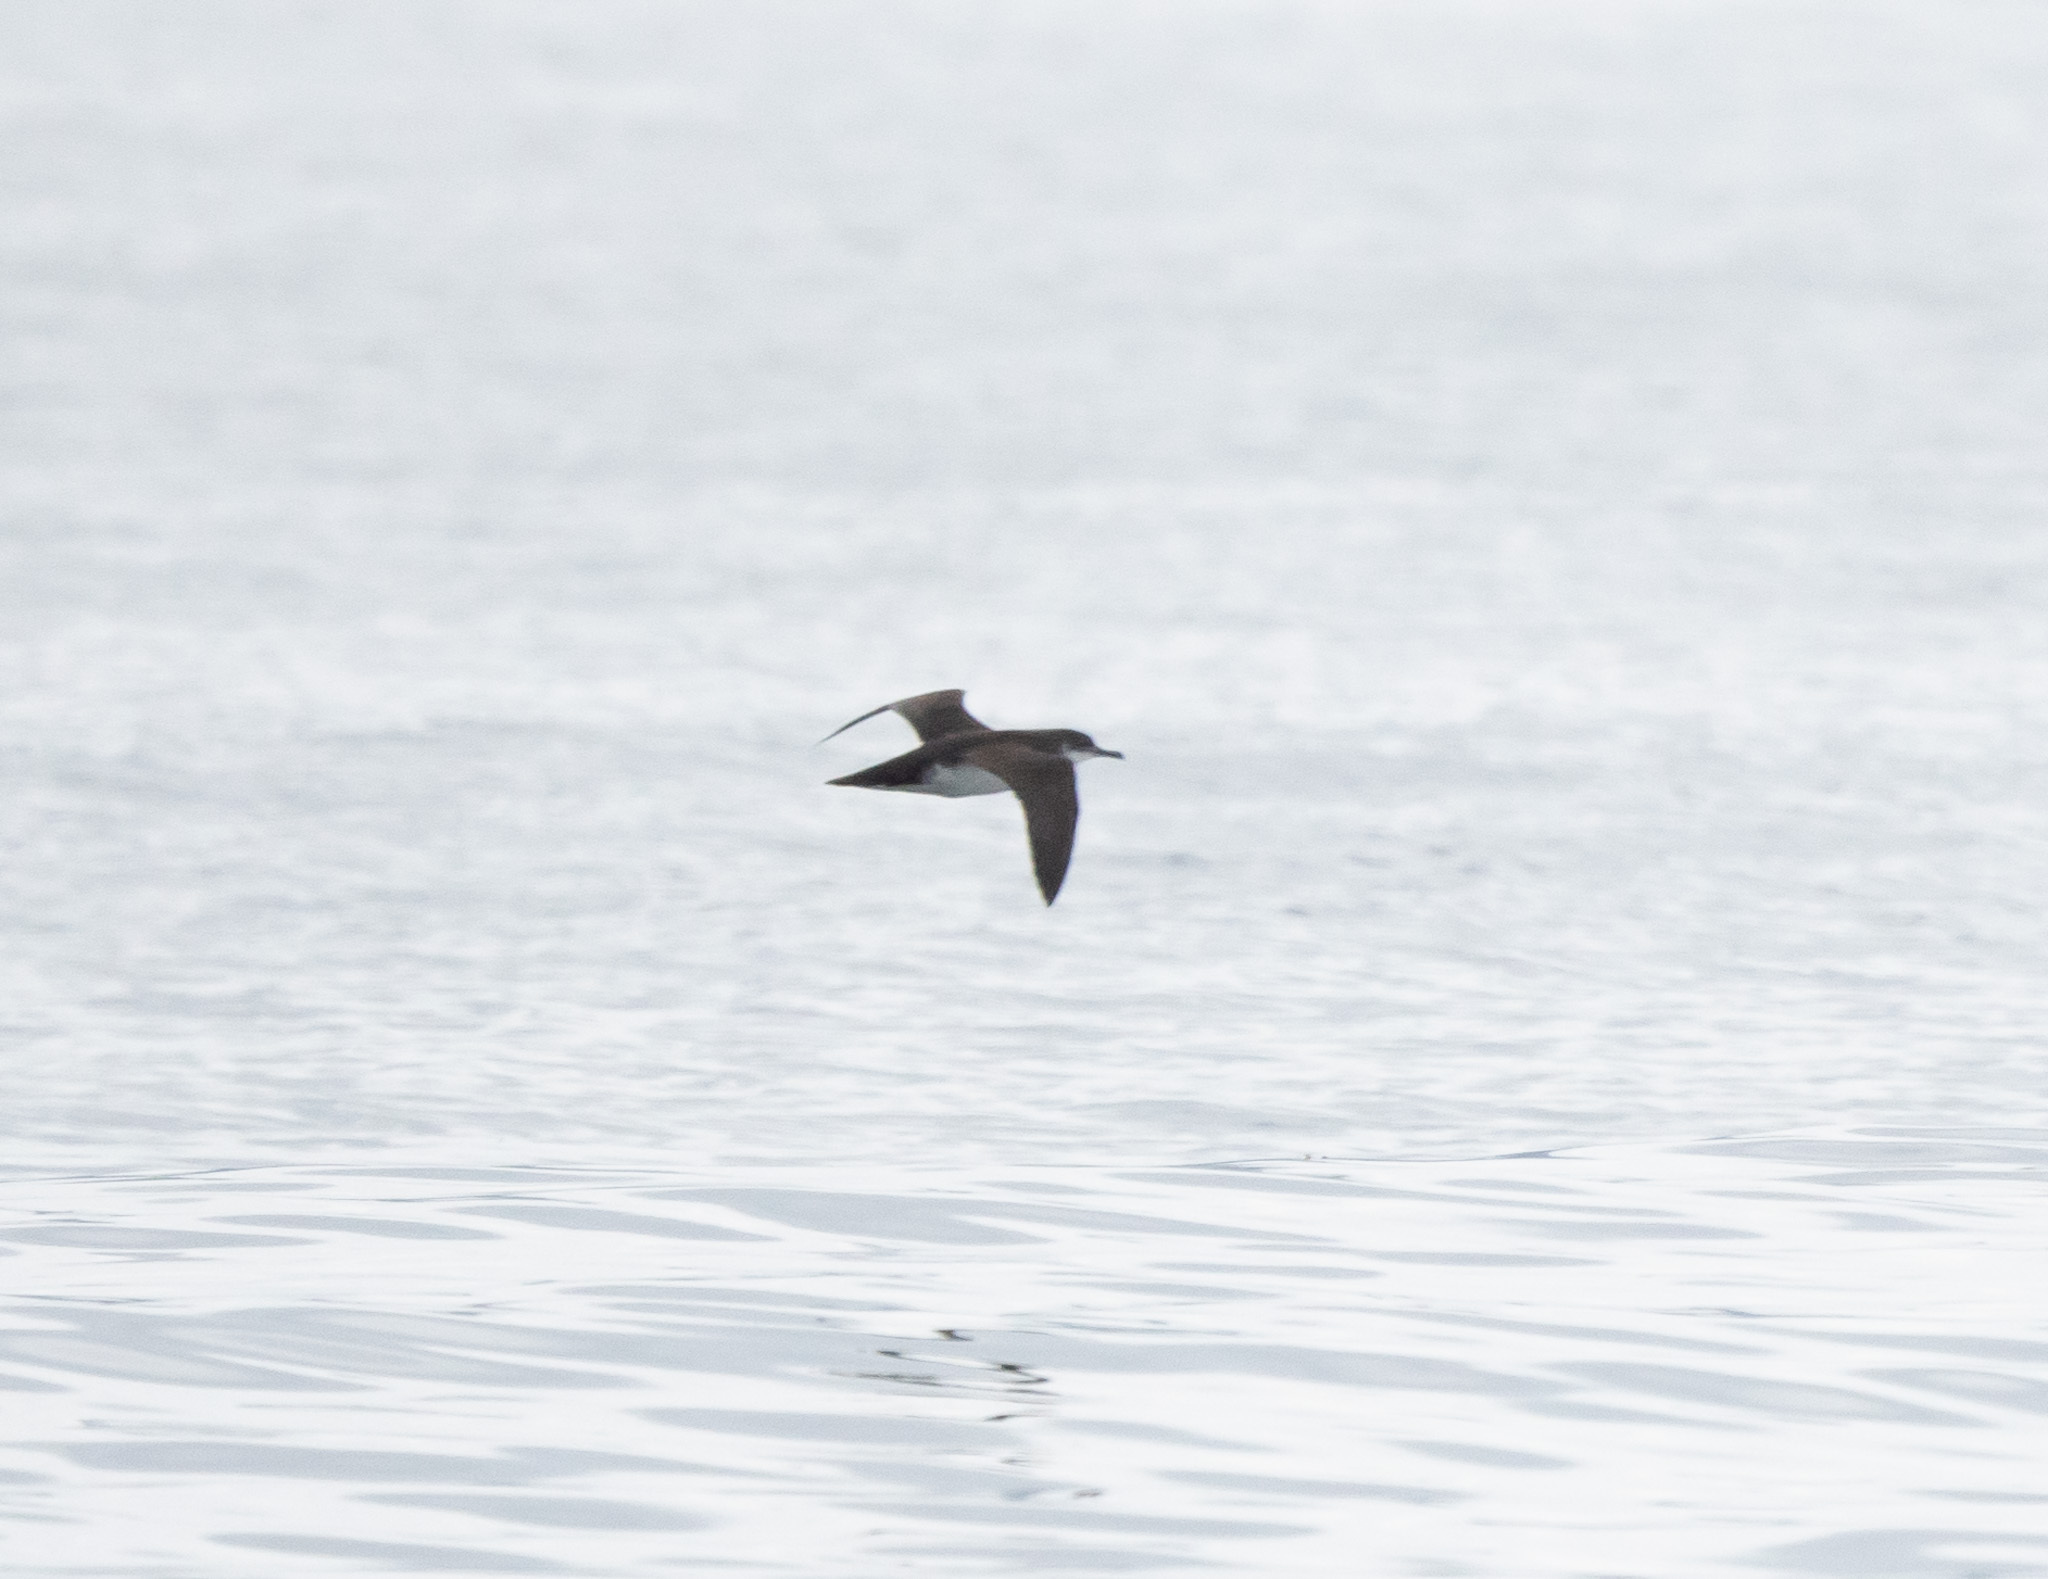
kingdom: Animalia
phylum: Chordata
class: Aves
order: Procellariiformes
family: Procellariidae
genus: Puffinus
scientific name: Puffinus puffinus
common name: Manx shearwater
